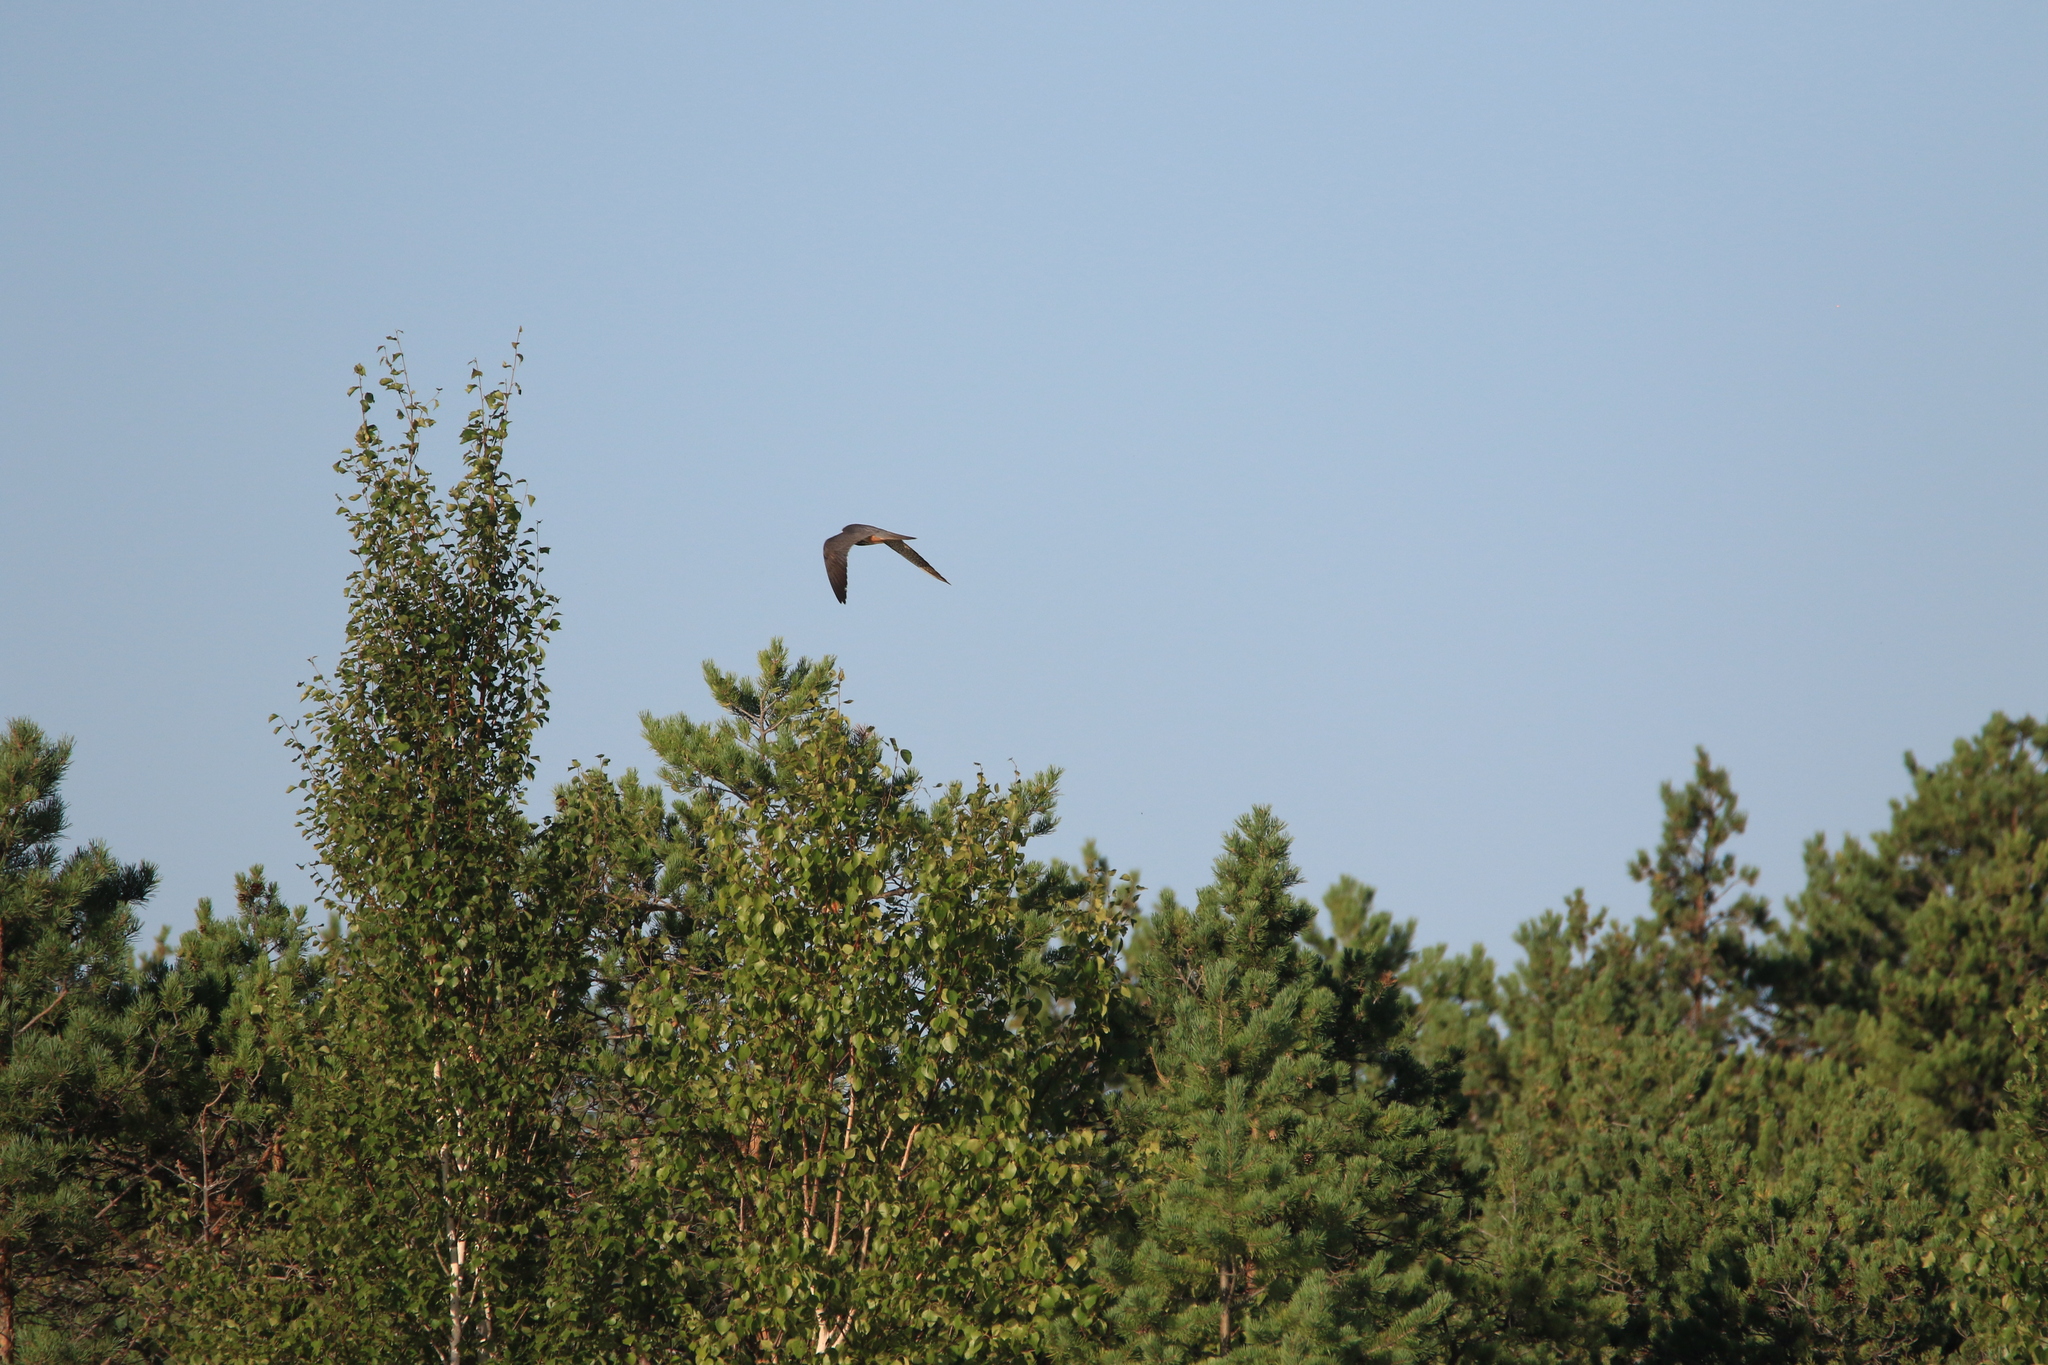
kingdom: Animalia
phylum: Chordata
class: Aves
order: Falconiformes
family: Falconidae
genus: Falco
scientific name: Falco subbuteo
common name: Eurasian hobby
